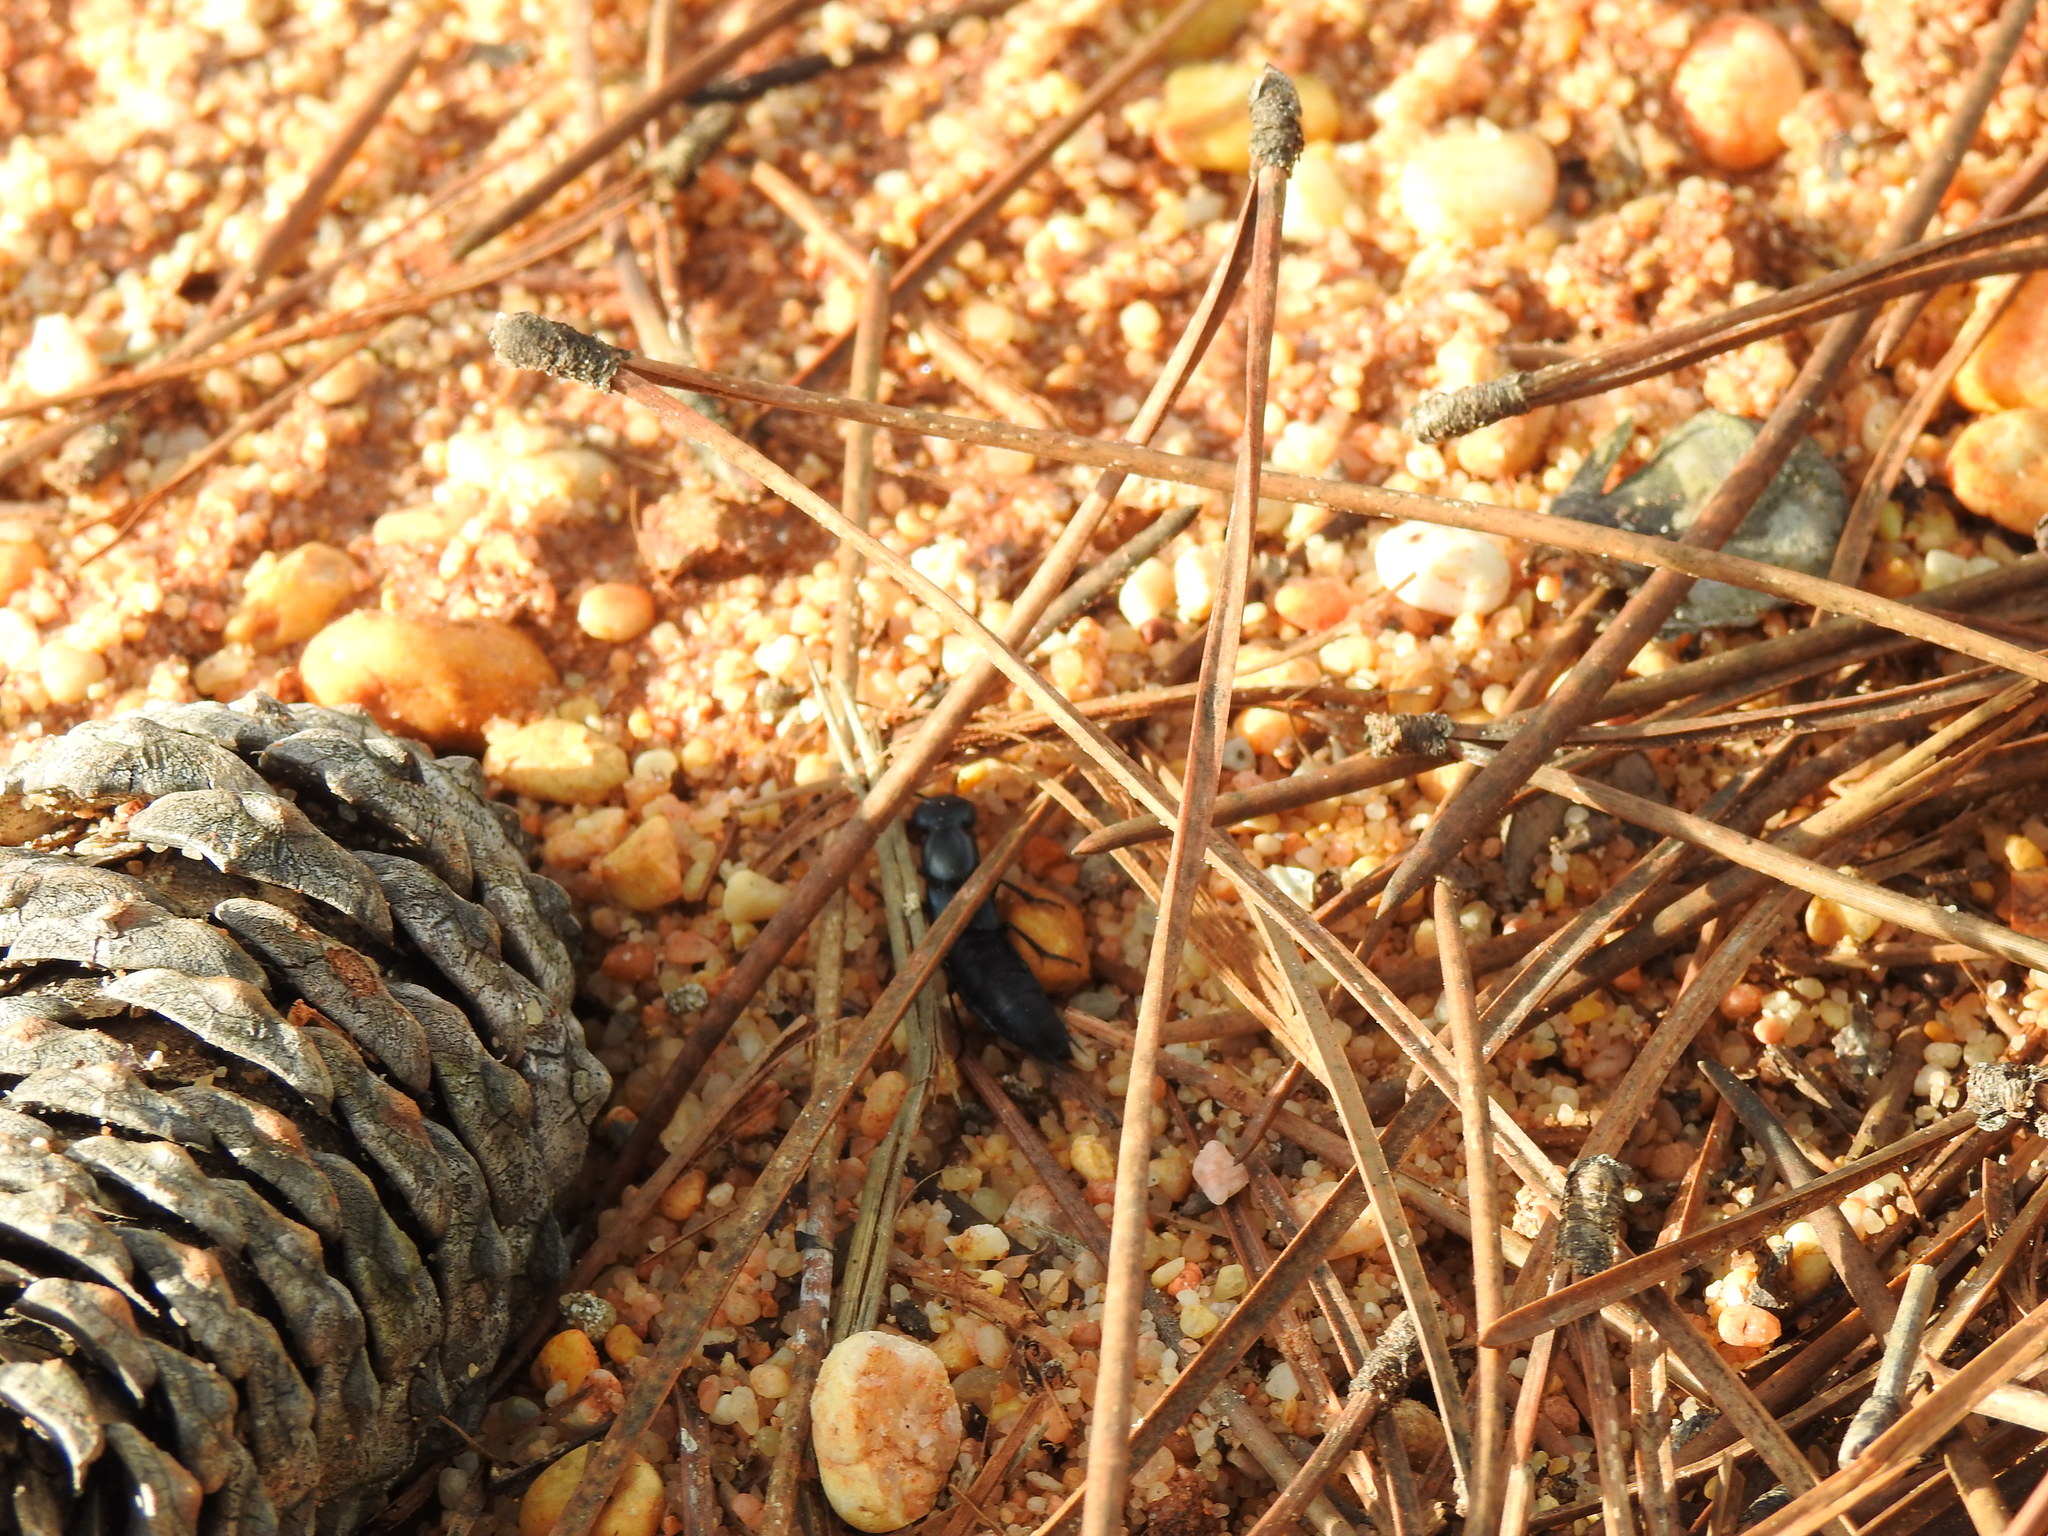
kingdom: Animalia
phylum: Arthropoda
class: Insecta
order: Coleoptera
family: Staphylinidae
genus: Ocypus
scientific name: Ocypus ophthalmicus
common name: Blue rove-beetle
